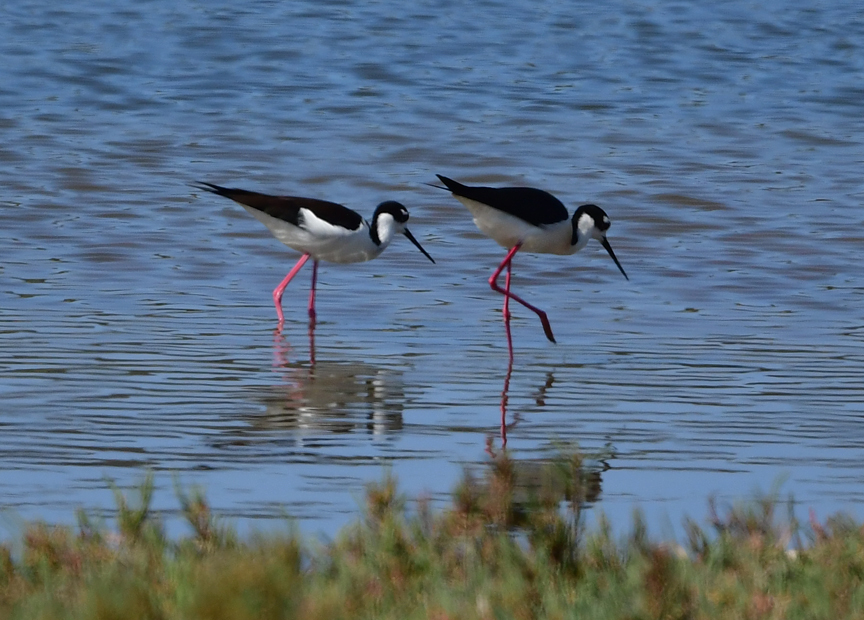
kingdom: Animalia
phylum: Chordata
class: Aves
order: Charadriiformes
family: Recurvirostridae
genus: Himantopus
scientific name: Himantopus mexicanus
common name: Black-necked stilt
